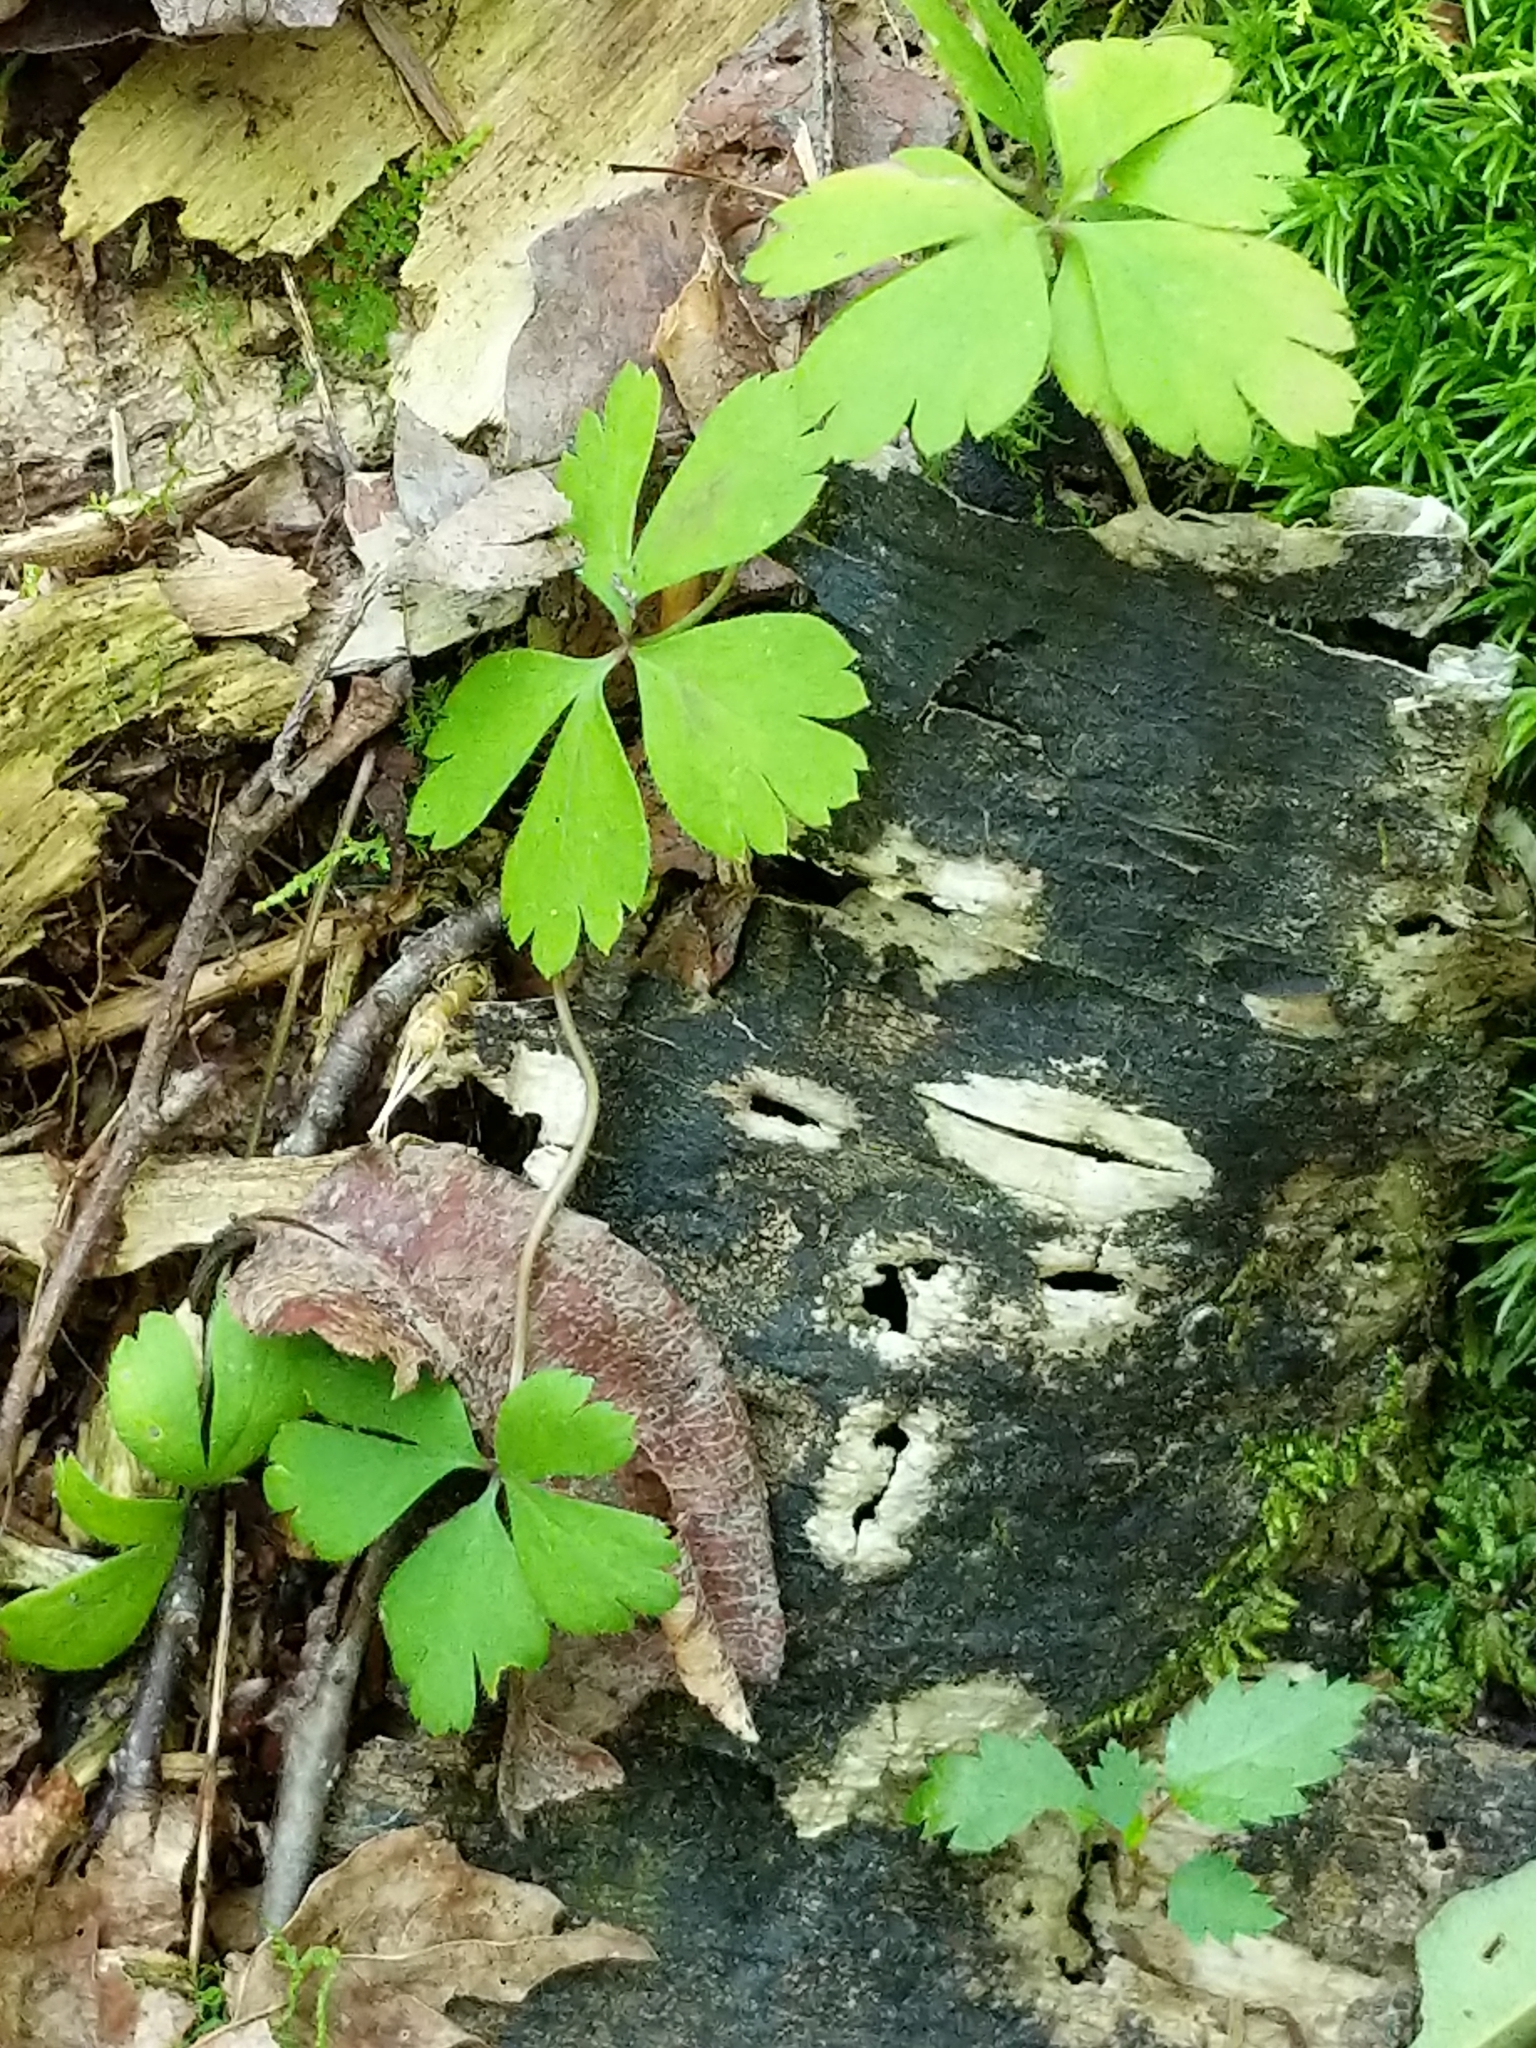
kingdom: Plantae
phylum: Tracheophyta
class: Magnoliopsida
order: Ranunculales
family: Ranunculaceae
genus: Anemone
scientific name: Anemone quinquefolia
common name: Wood anemone
